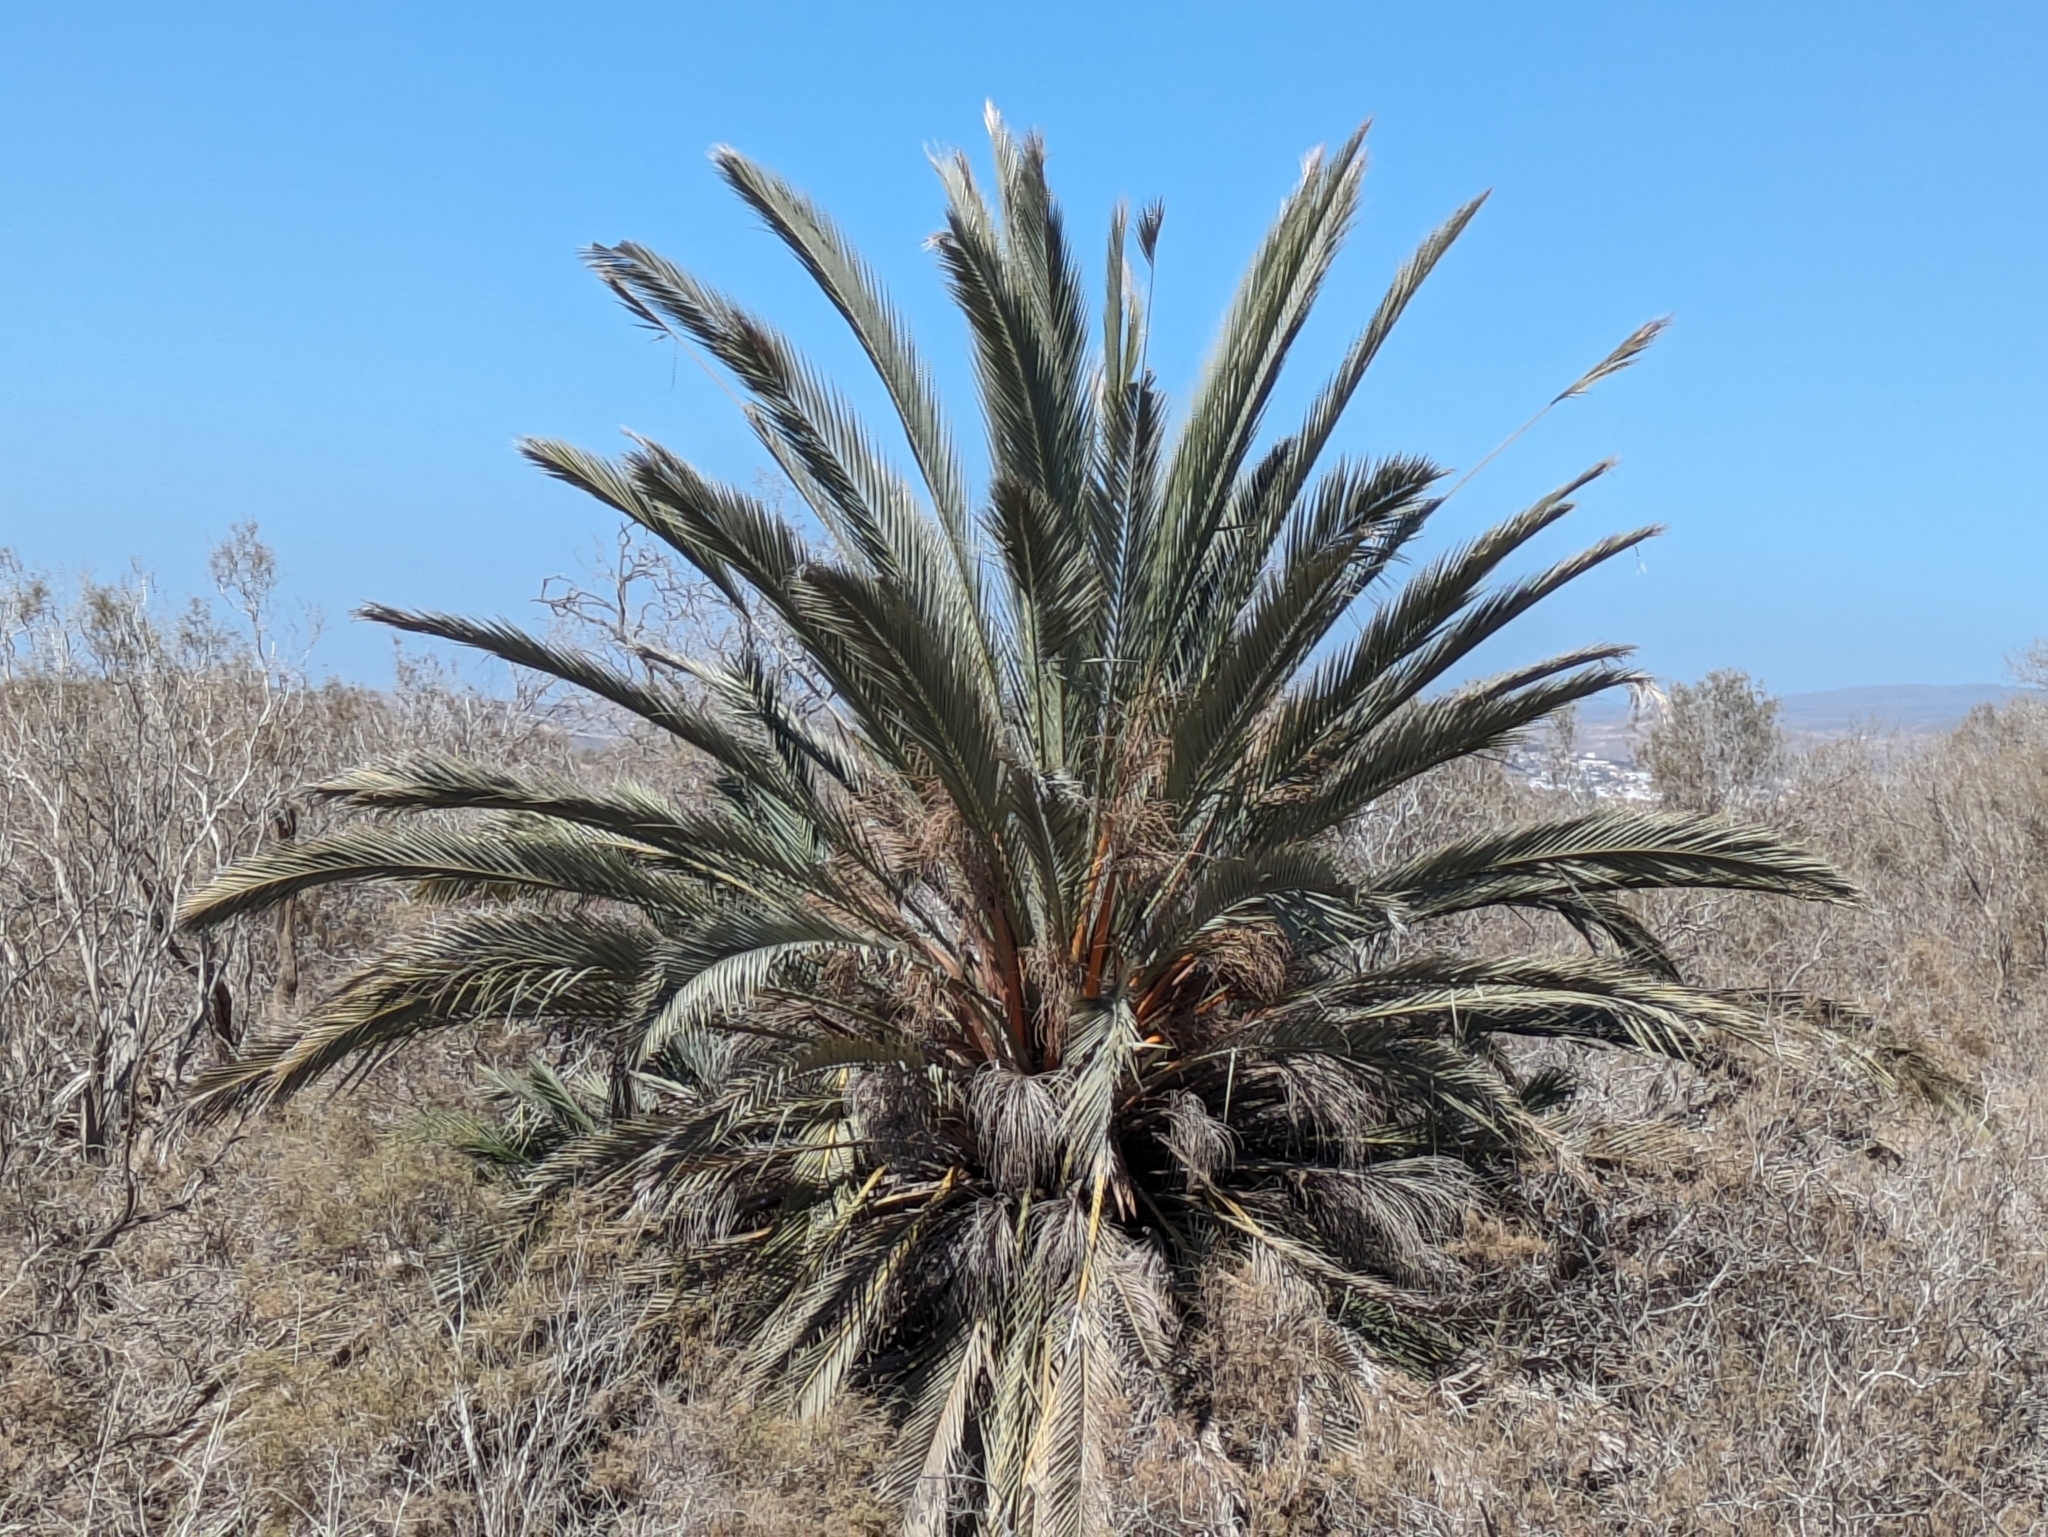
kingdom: Plantae
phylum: Tracheophyta
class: Liliopsida
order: Arecales
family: Arecaceae
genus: Phoenix
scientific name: Phoenix canariensis
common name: Canary island date palm
